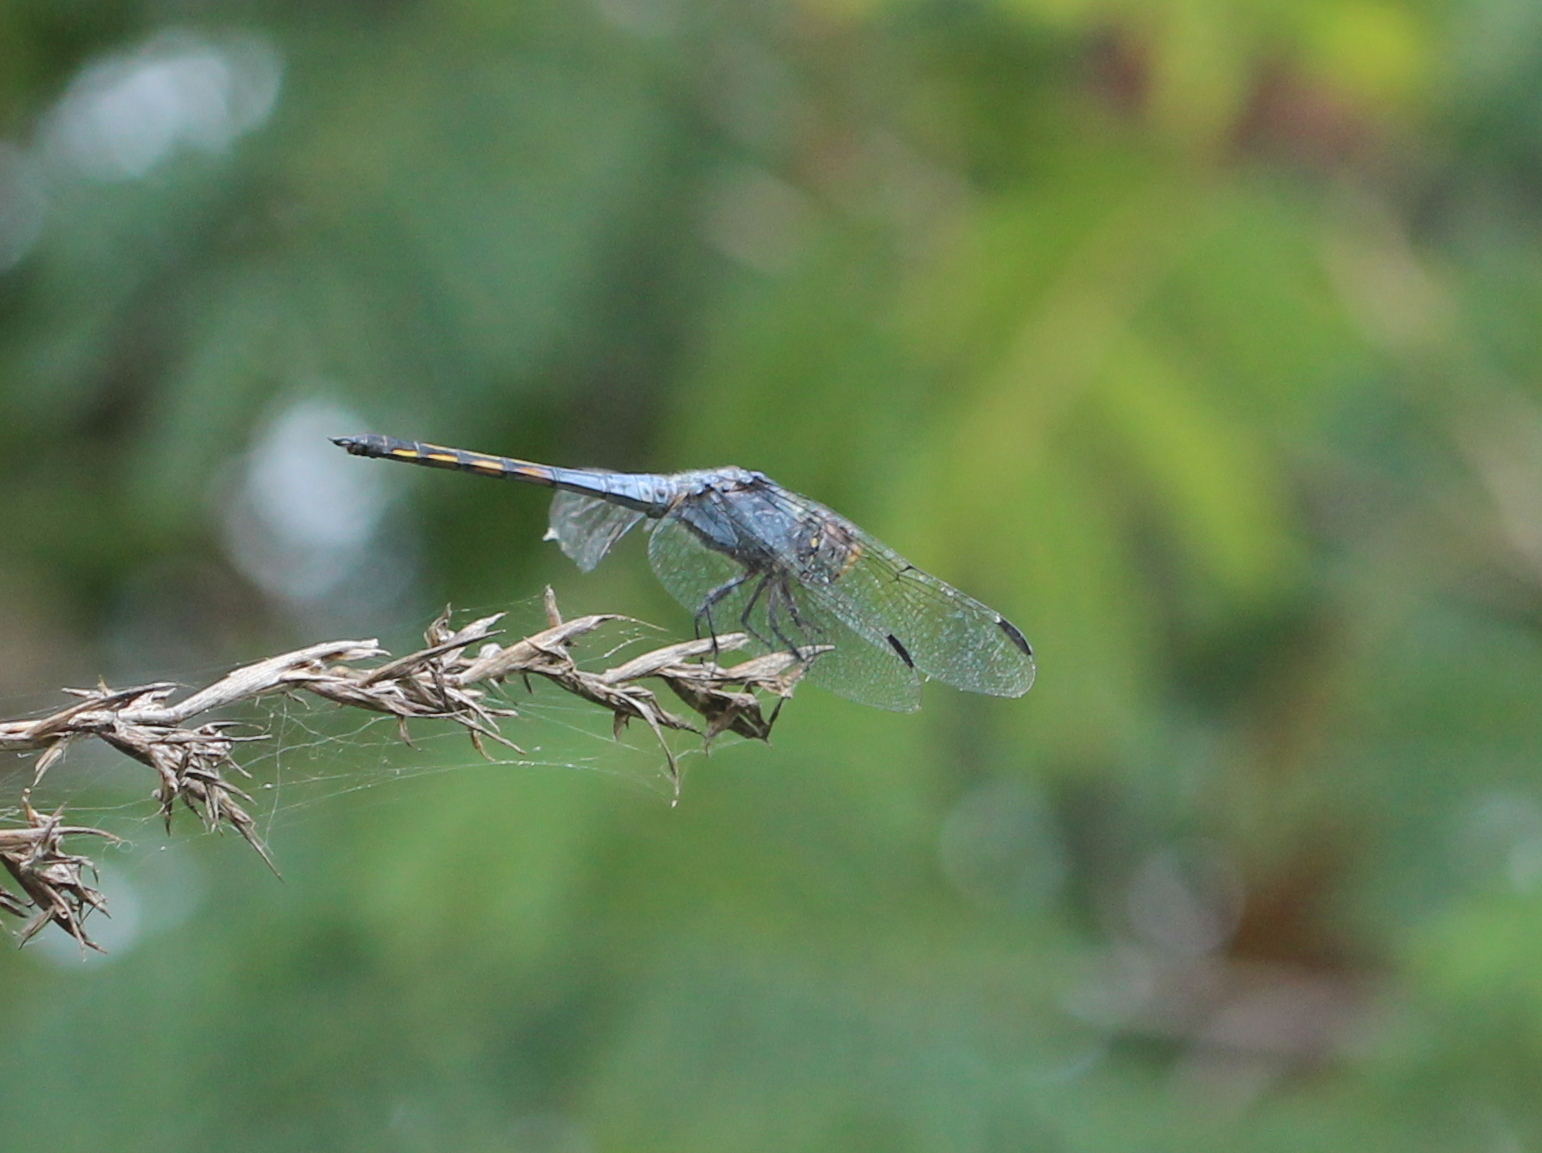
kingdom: Animalia
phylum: Arthropoda
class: Insecta
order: Odonata
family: Libellulidae
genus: Potamarcha
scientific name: Potamarcha congener
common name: Blue chaser
